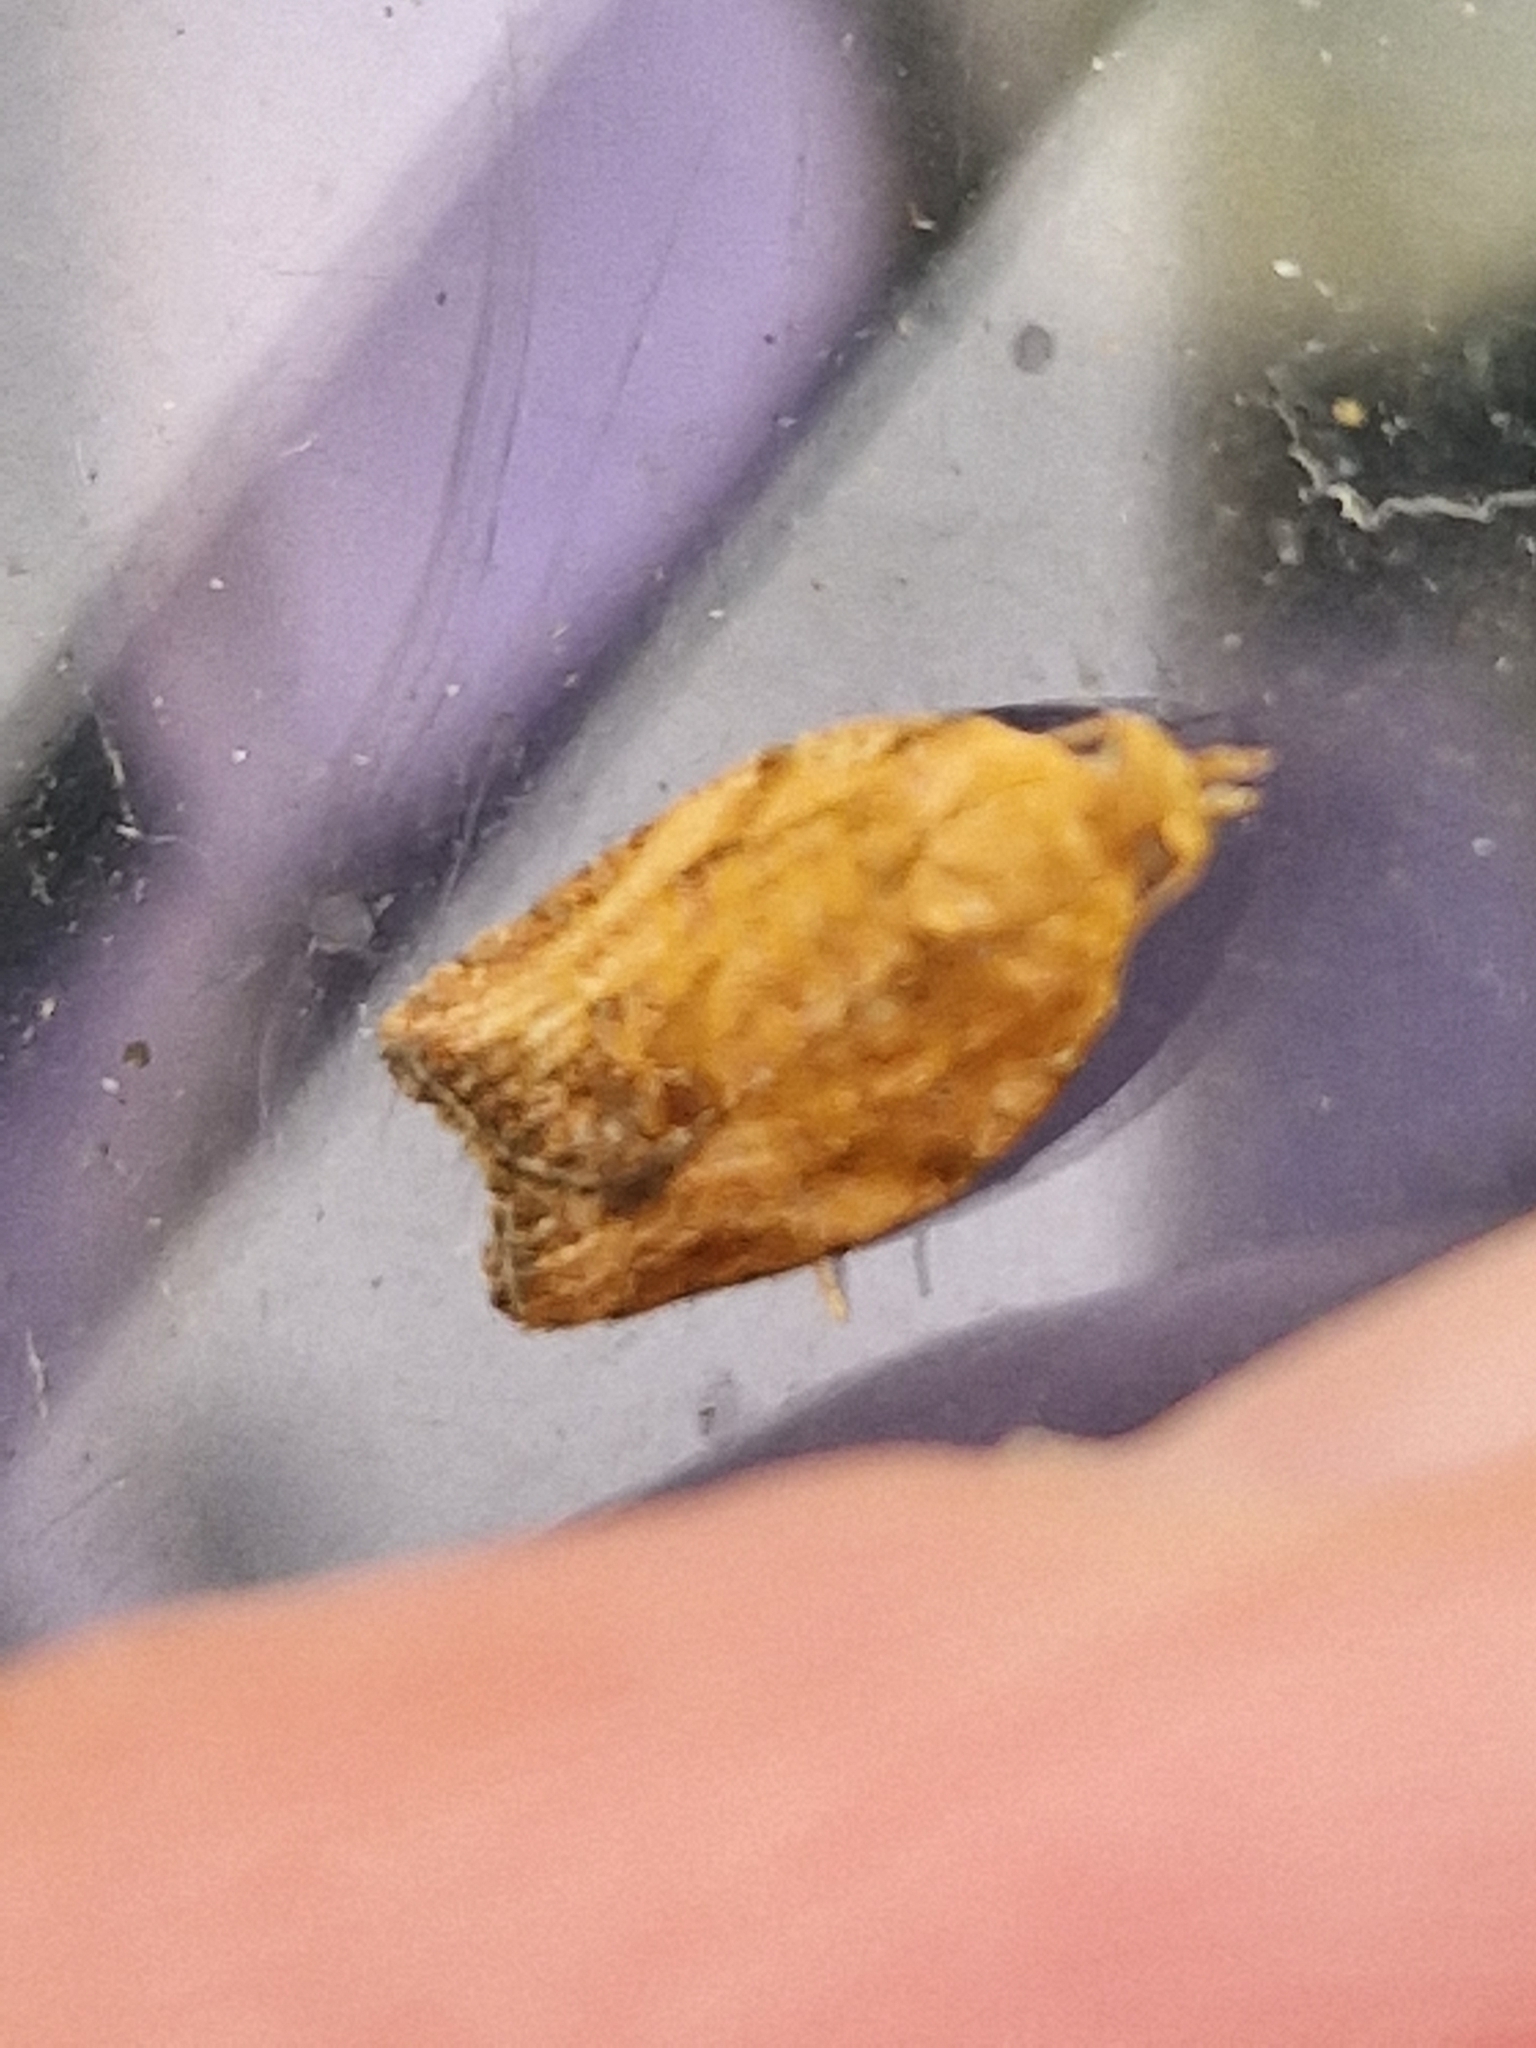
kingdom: Animalia
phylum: Arthropoda
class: Insecta
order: Lepidoptera
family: Tortricidae
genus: Epiphyas
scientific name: Epiphyas postvittana
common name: Light brown apple moth
